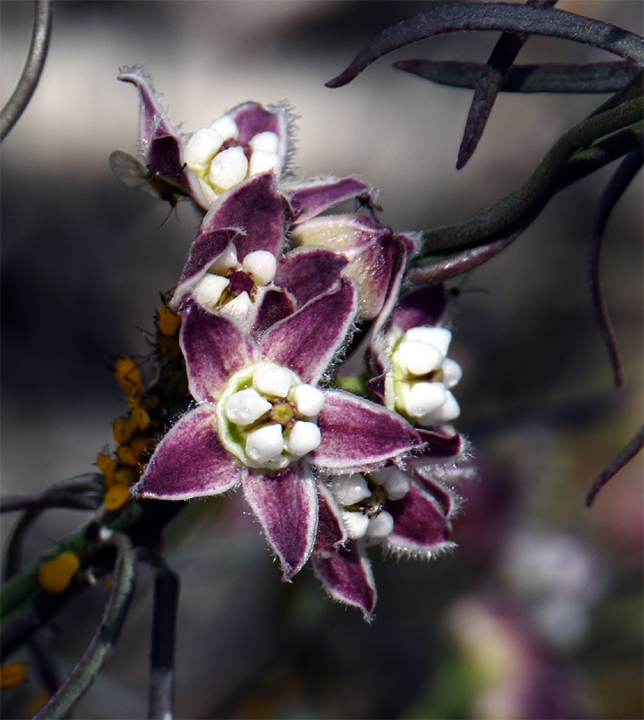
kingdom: Plantae
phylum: Tracheophyta
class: Magnoliopsida
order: Gentianales
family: Apocynaceae
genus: Funastrum
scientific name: Funastrum heterophyllum
